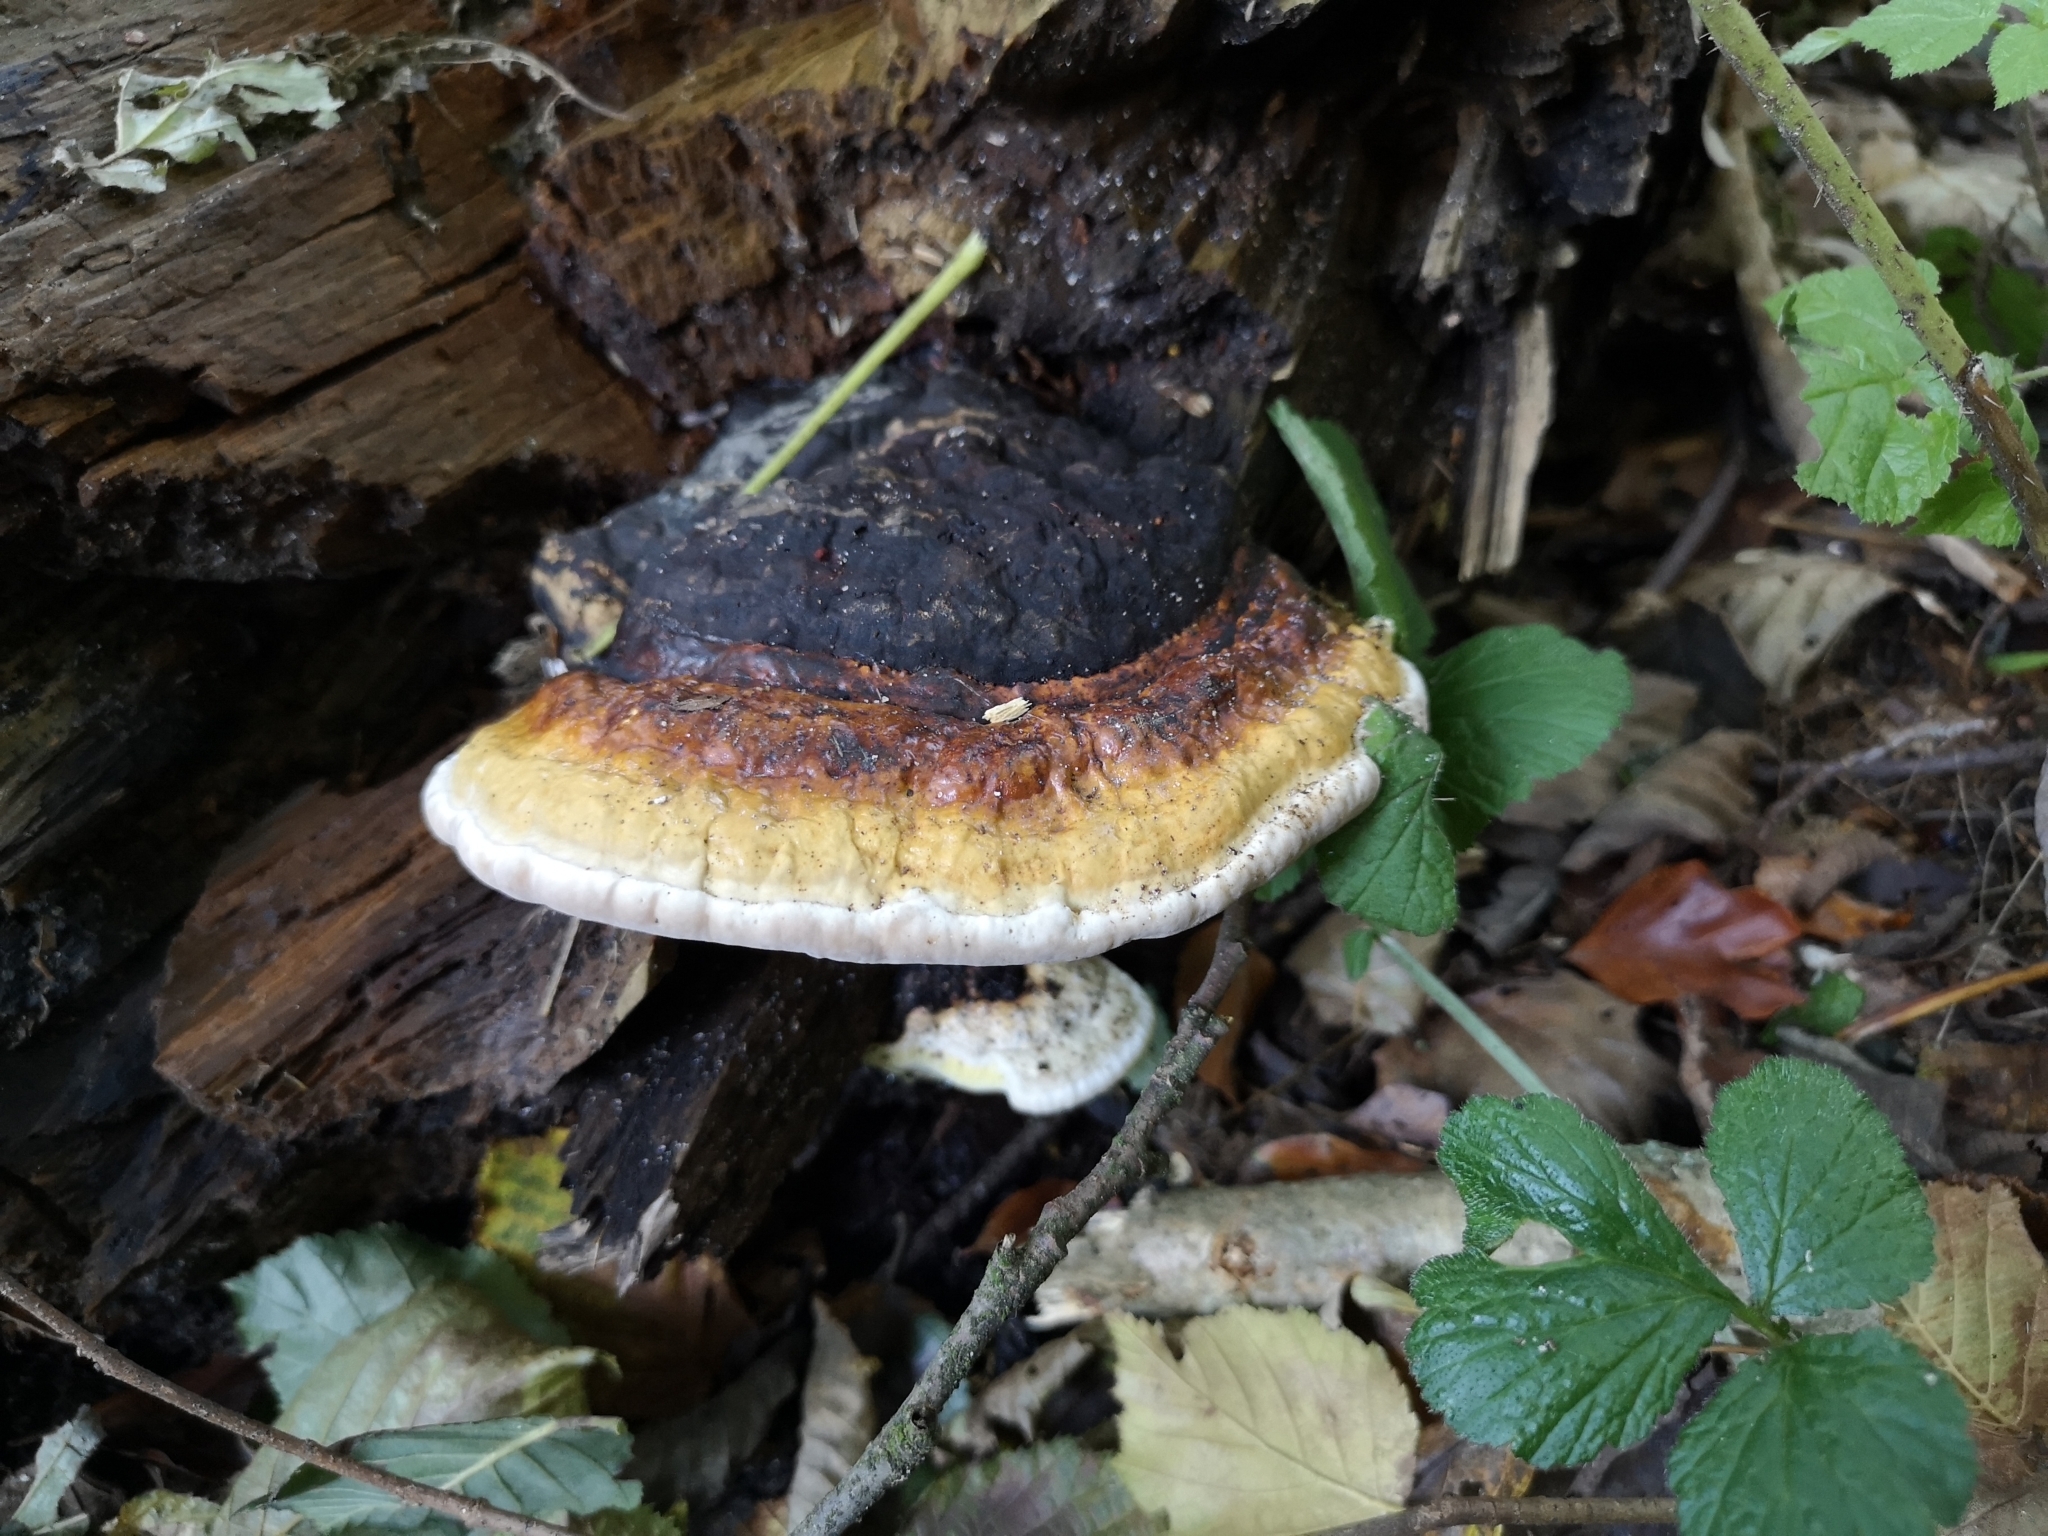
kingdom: Fungi
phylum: Basidiomycota
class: Agaricomycetes
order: Polyporales
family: Fomitopsidaceae
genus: Fomitopsis
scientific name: Fomitopsis pinicola
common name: Red-belted bracket
